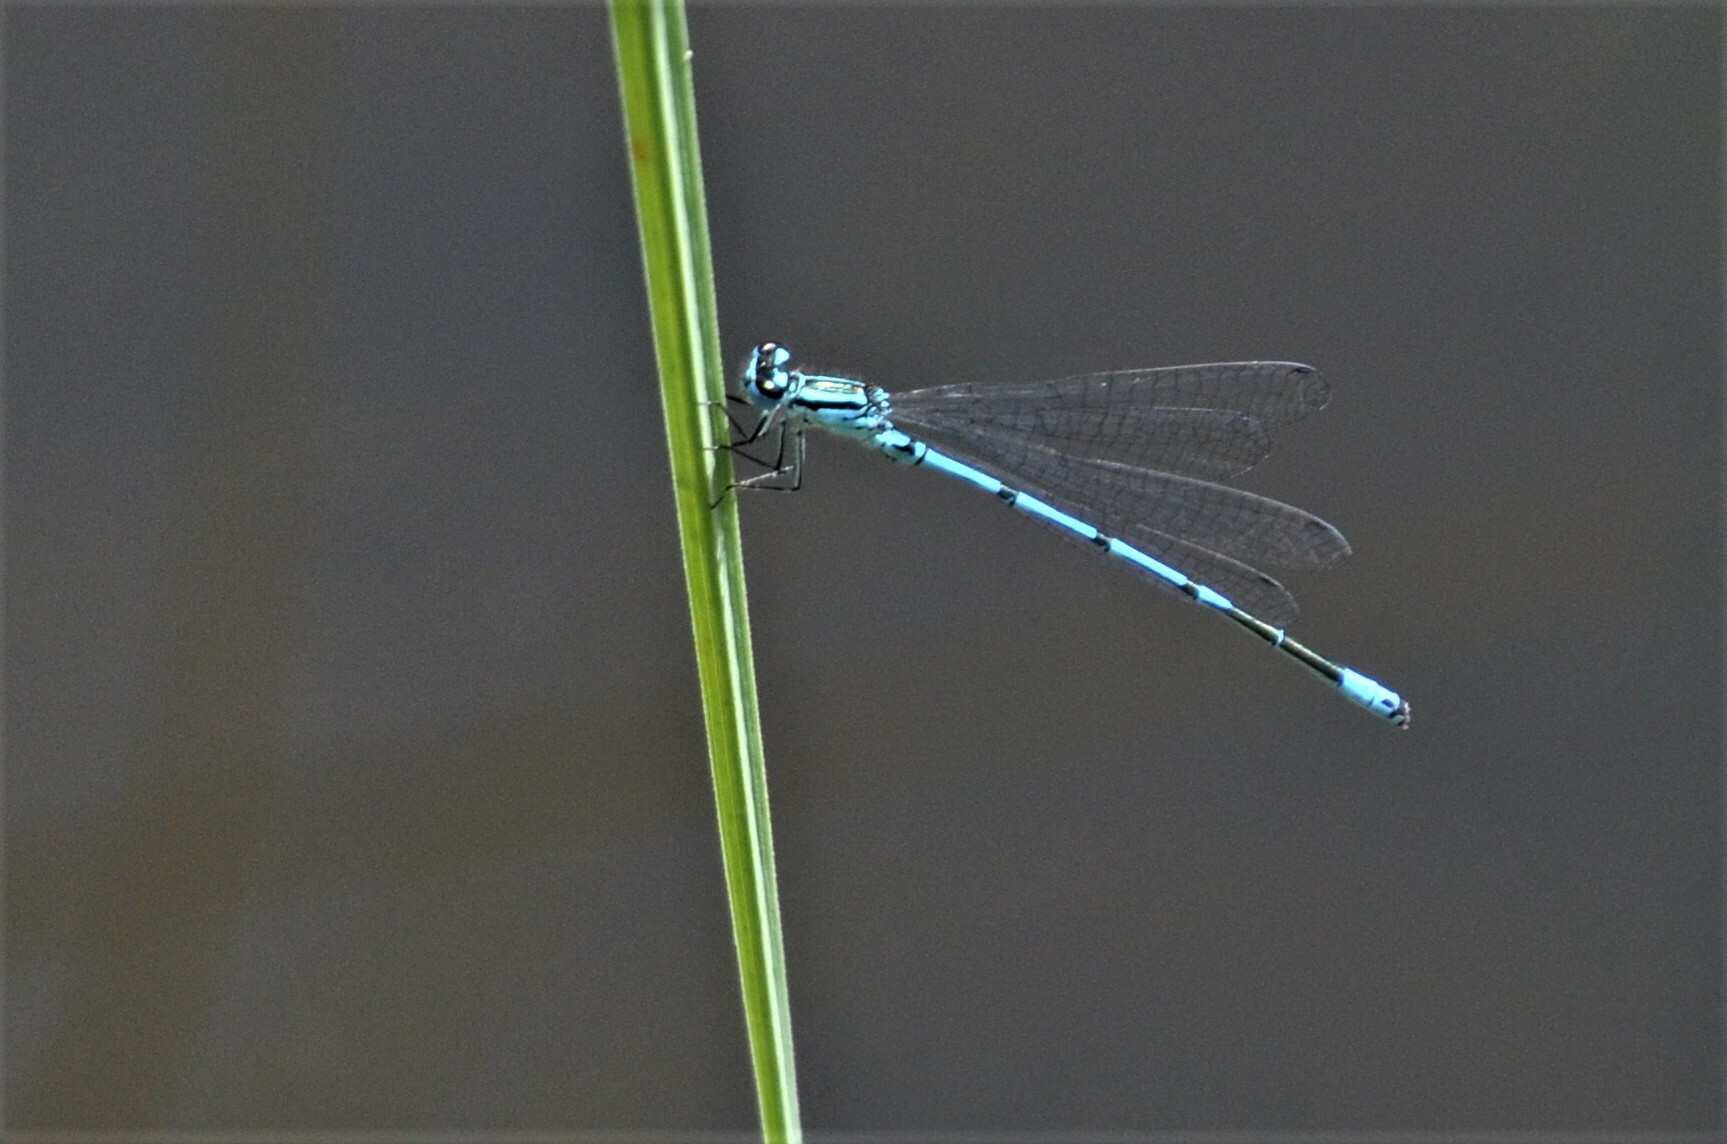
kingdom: Animalia
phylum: Arthropoda
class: Insecta
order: Odonata
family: Coenagrionidae
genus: Coenagrion
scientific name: Coenagrion puella
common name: Azure damselfly
